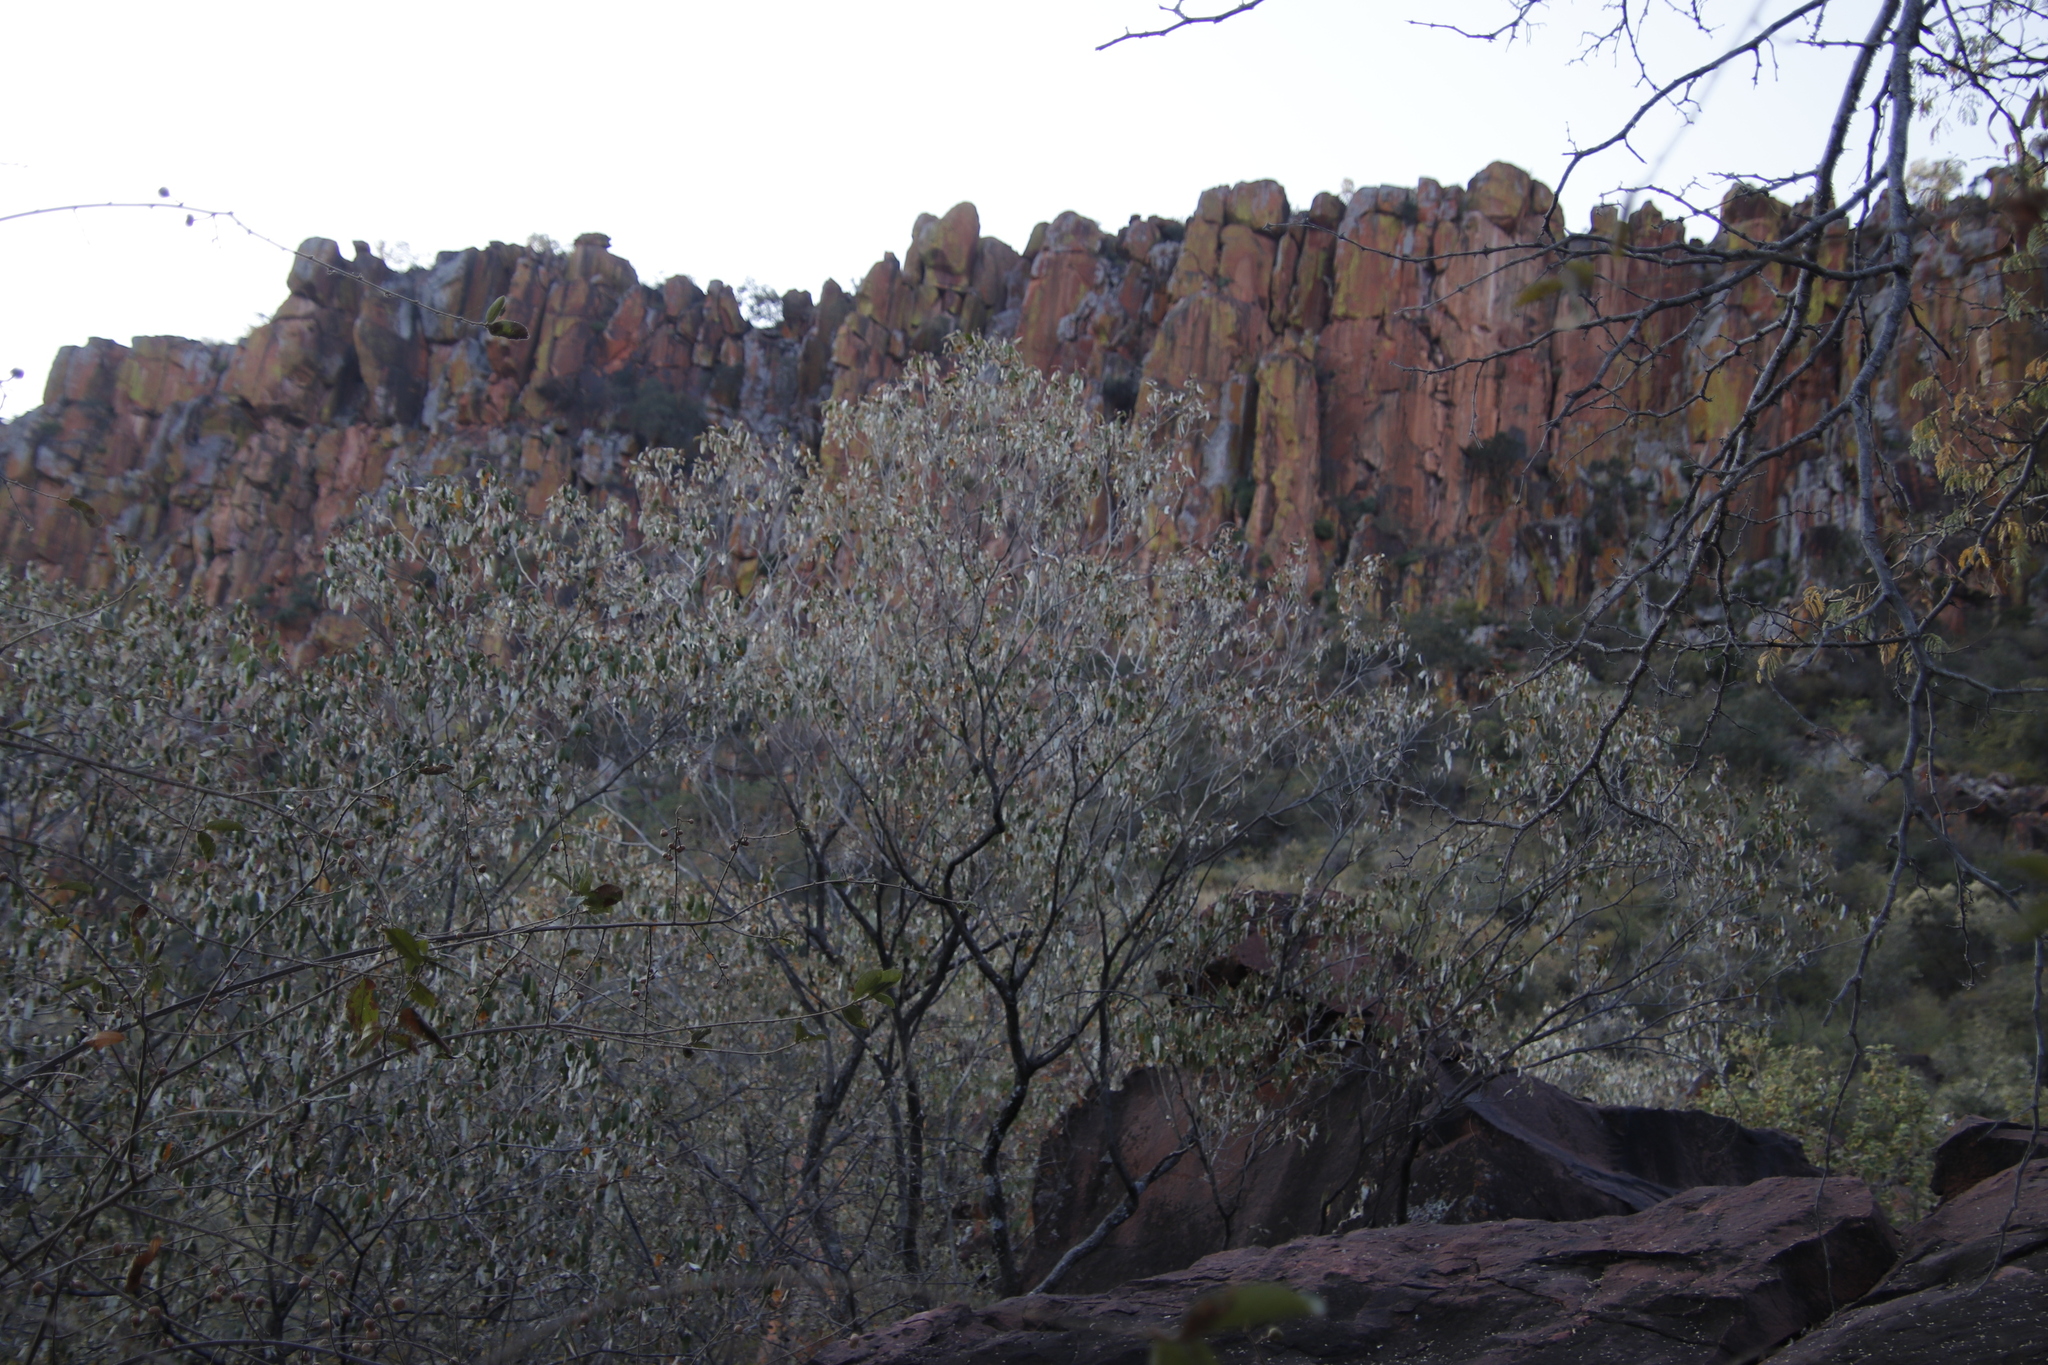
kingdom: Plantae
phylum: Tracheophyta
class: Magnoliopsida
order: Malpighiales
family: Euphorbiaceae
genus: Croton
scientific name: Croton gratissimus
